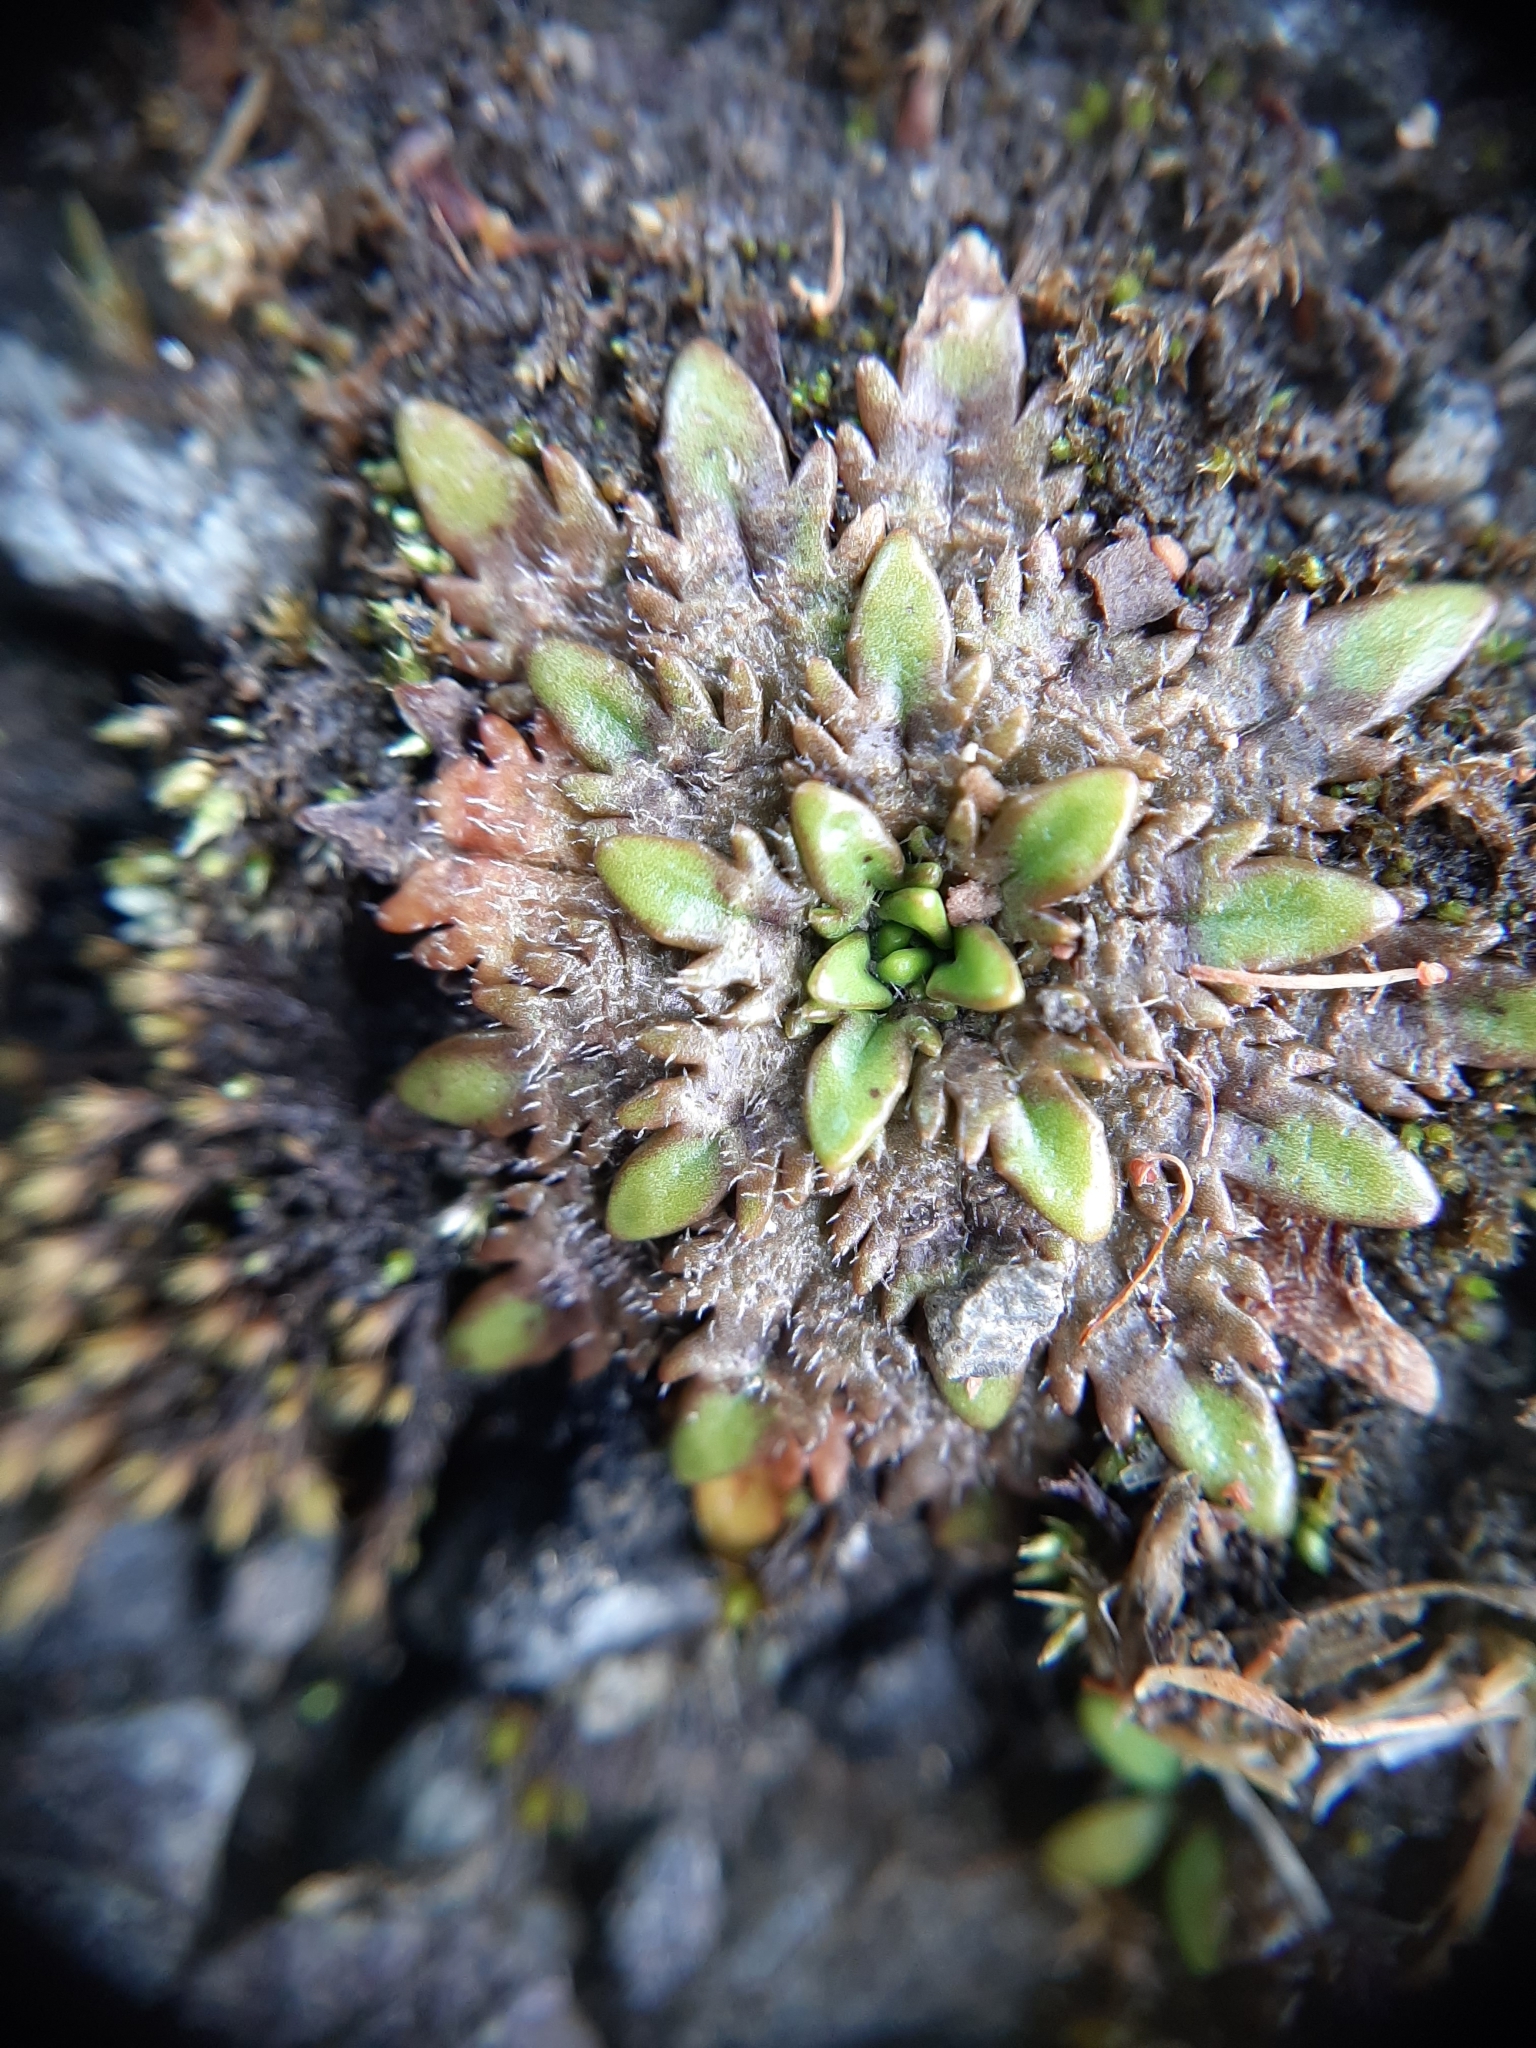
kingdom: Plantae
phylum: Tracheophyta
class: Magnoliopsida
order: Lamiales
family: Plantaginaceae
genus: Plantago
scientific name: Plantago triandra
